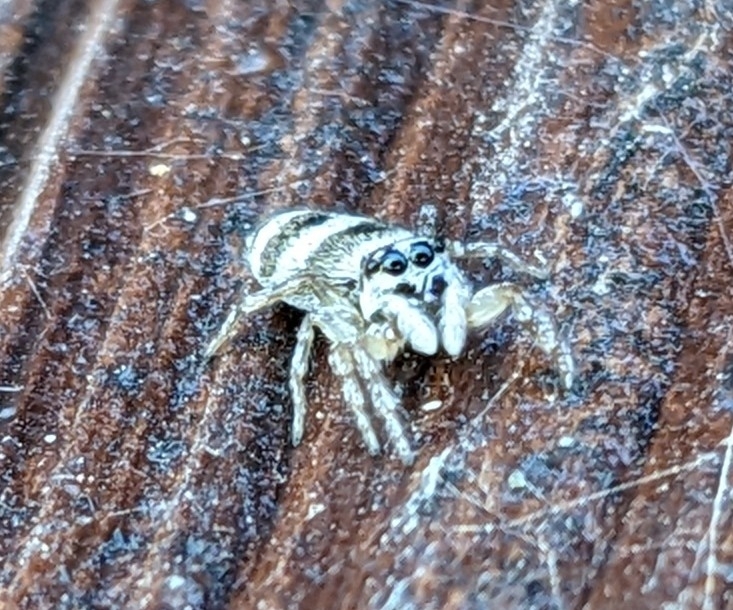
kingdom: Animalia
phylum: Arthropoda
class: Arachnida
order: Araneae
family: Salticidae
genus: Salticus
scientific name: Salticus scenicus
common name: Zebra jumper
